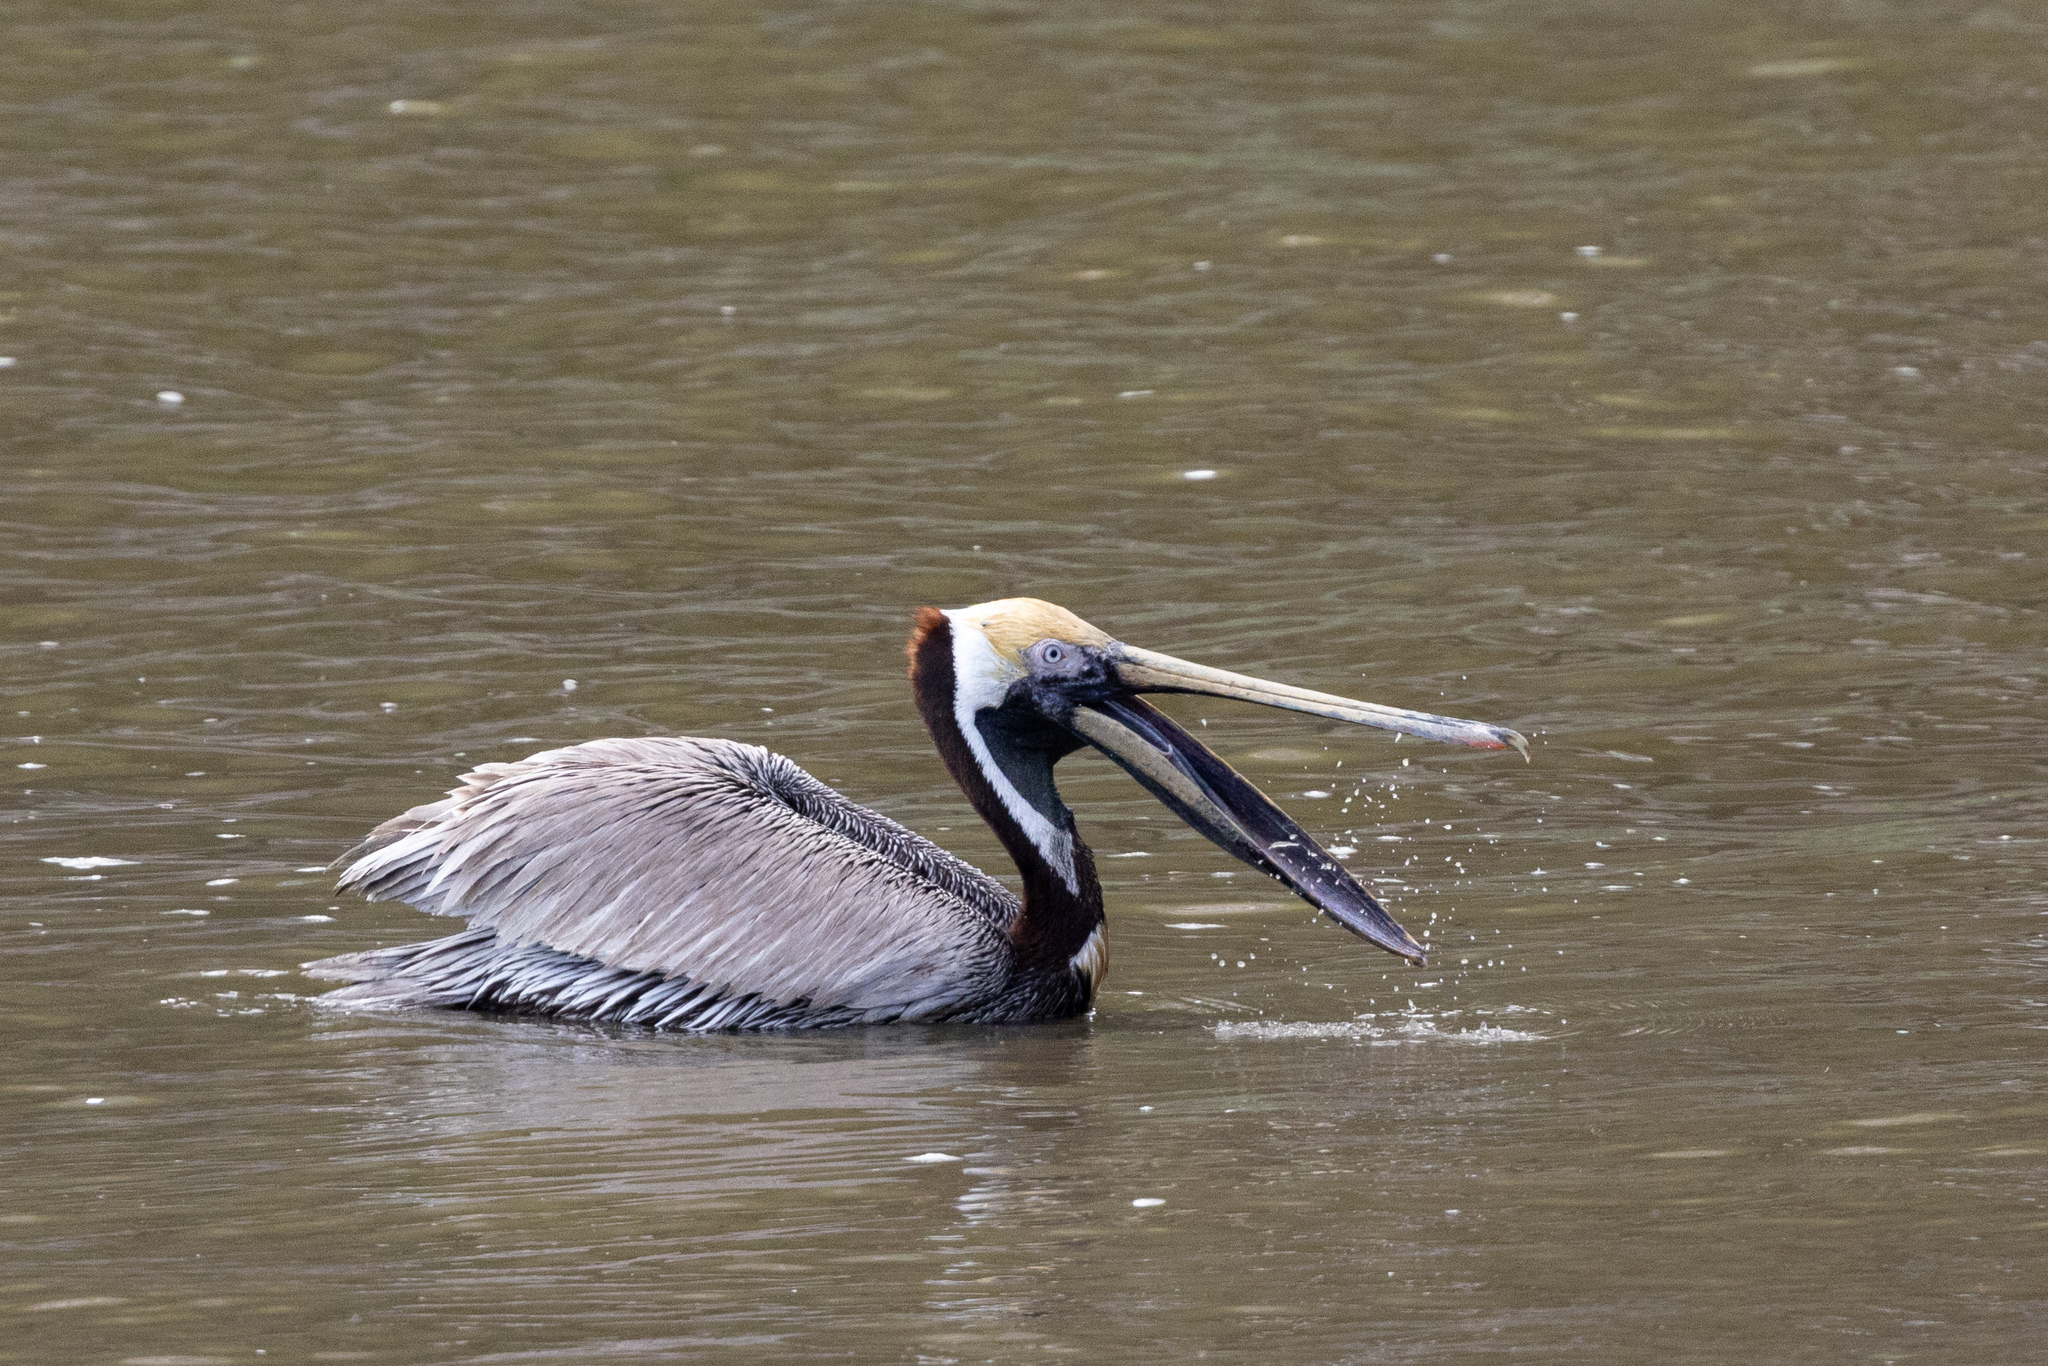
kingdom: Animalia
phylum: Chordata
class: Aves
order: Pelecaniformes
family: Pelecanidae
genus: Pelecanus
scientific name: Pelecanus occidentalis
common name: Brown pelican
